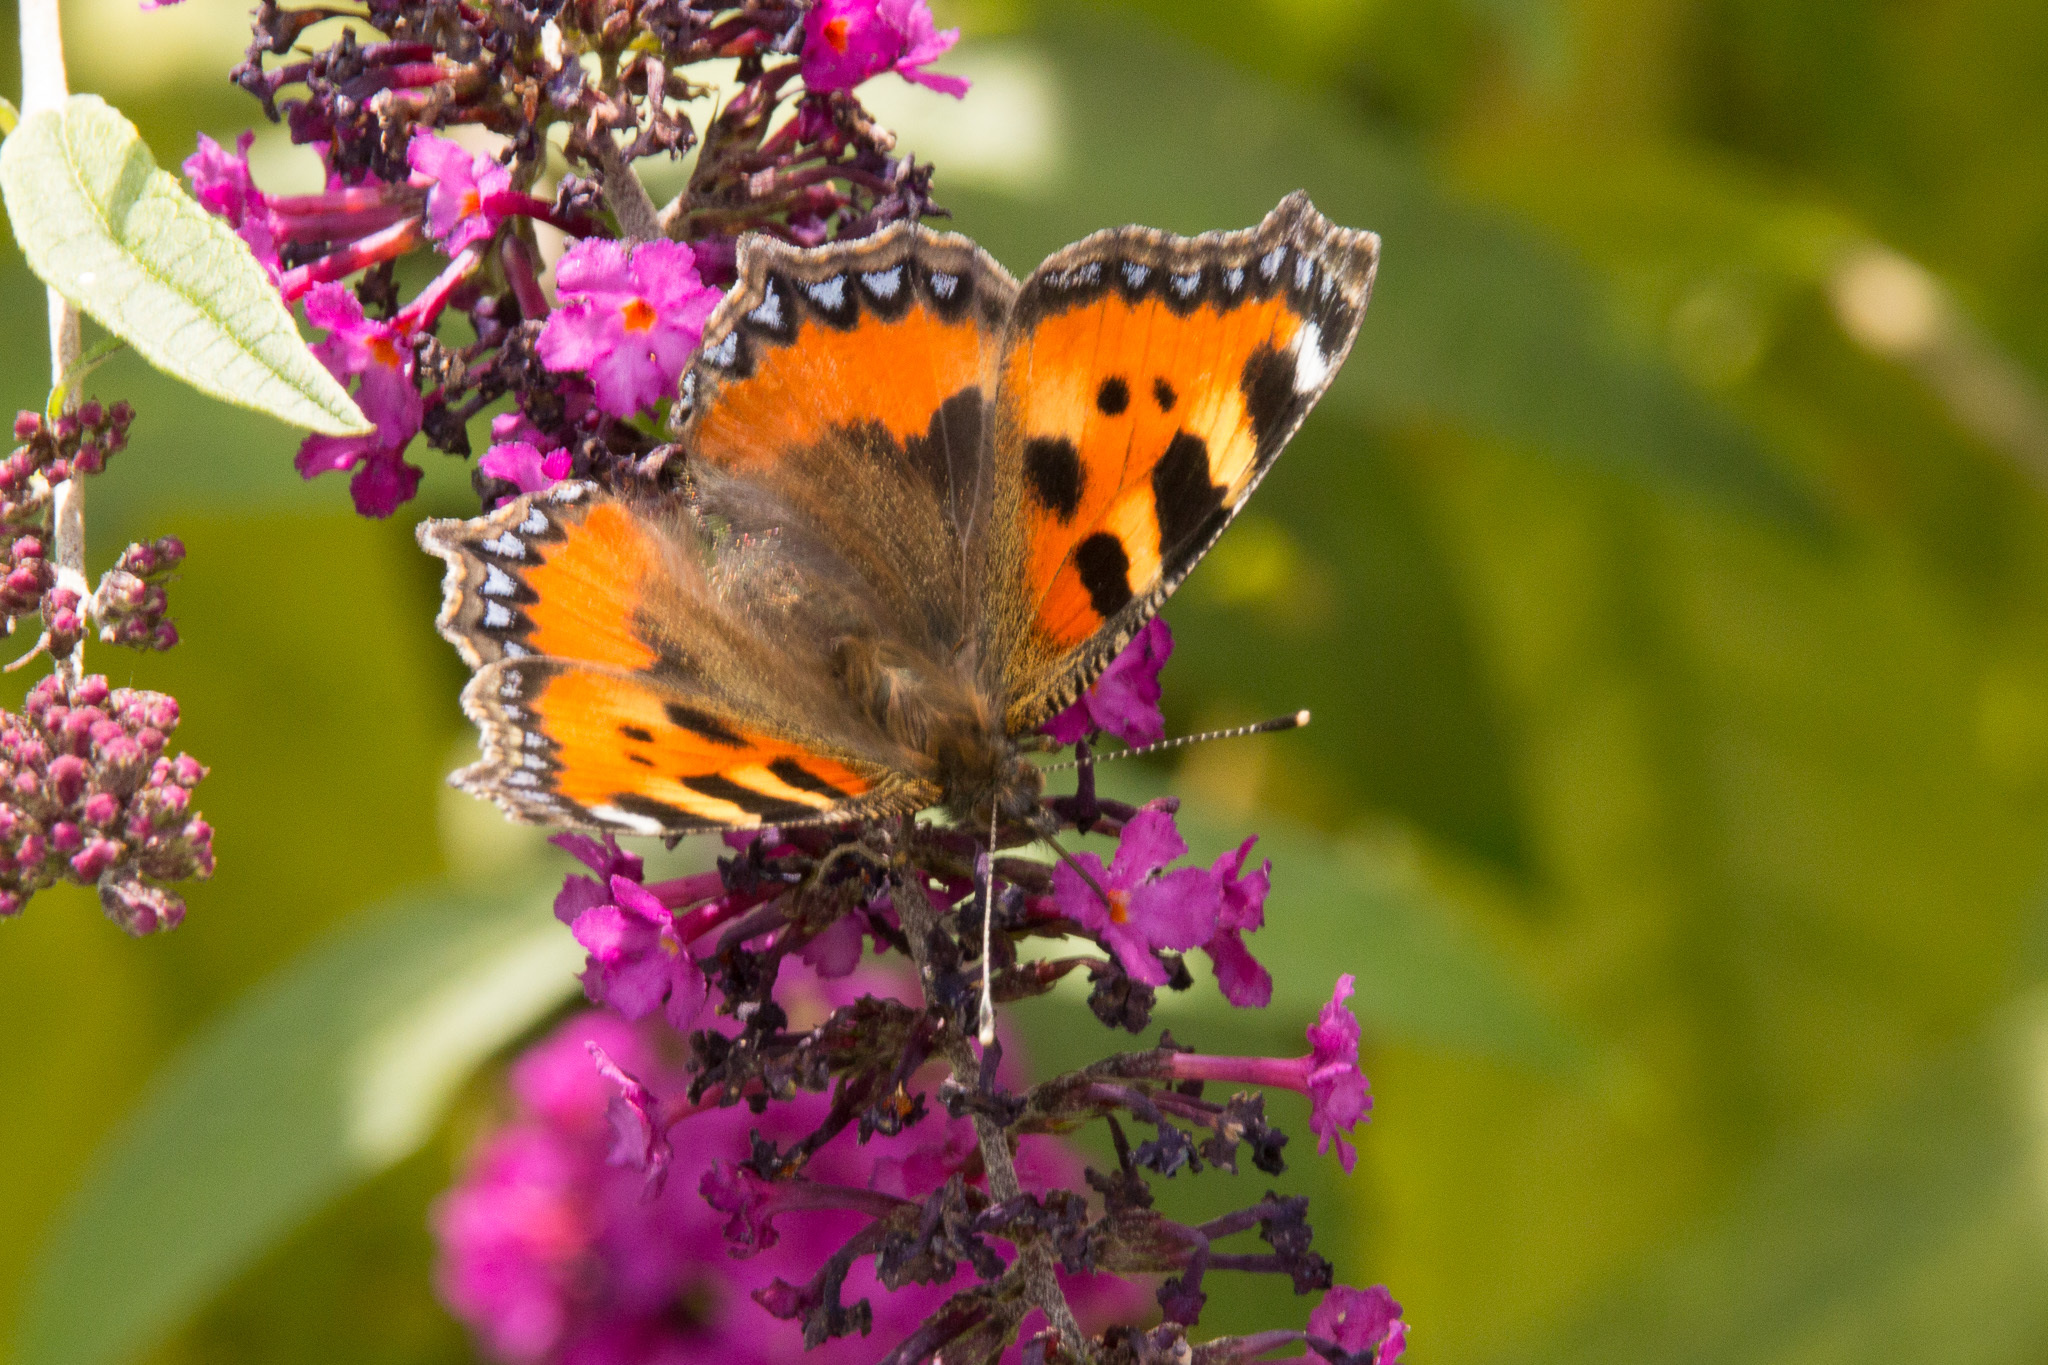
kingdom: Animalia
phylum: Arthropoda
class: Insecta
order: Lepidoptera
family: Nymphalidae
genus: Aglais
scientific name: Aglais urticae
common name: Small tortoiseshell
